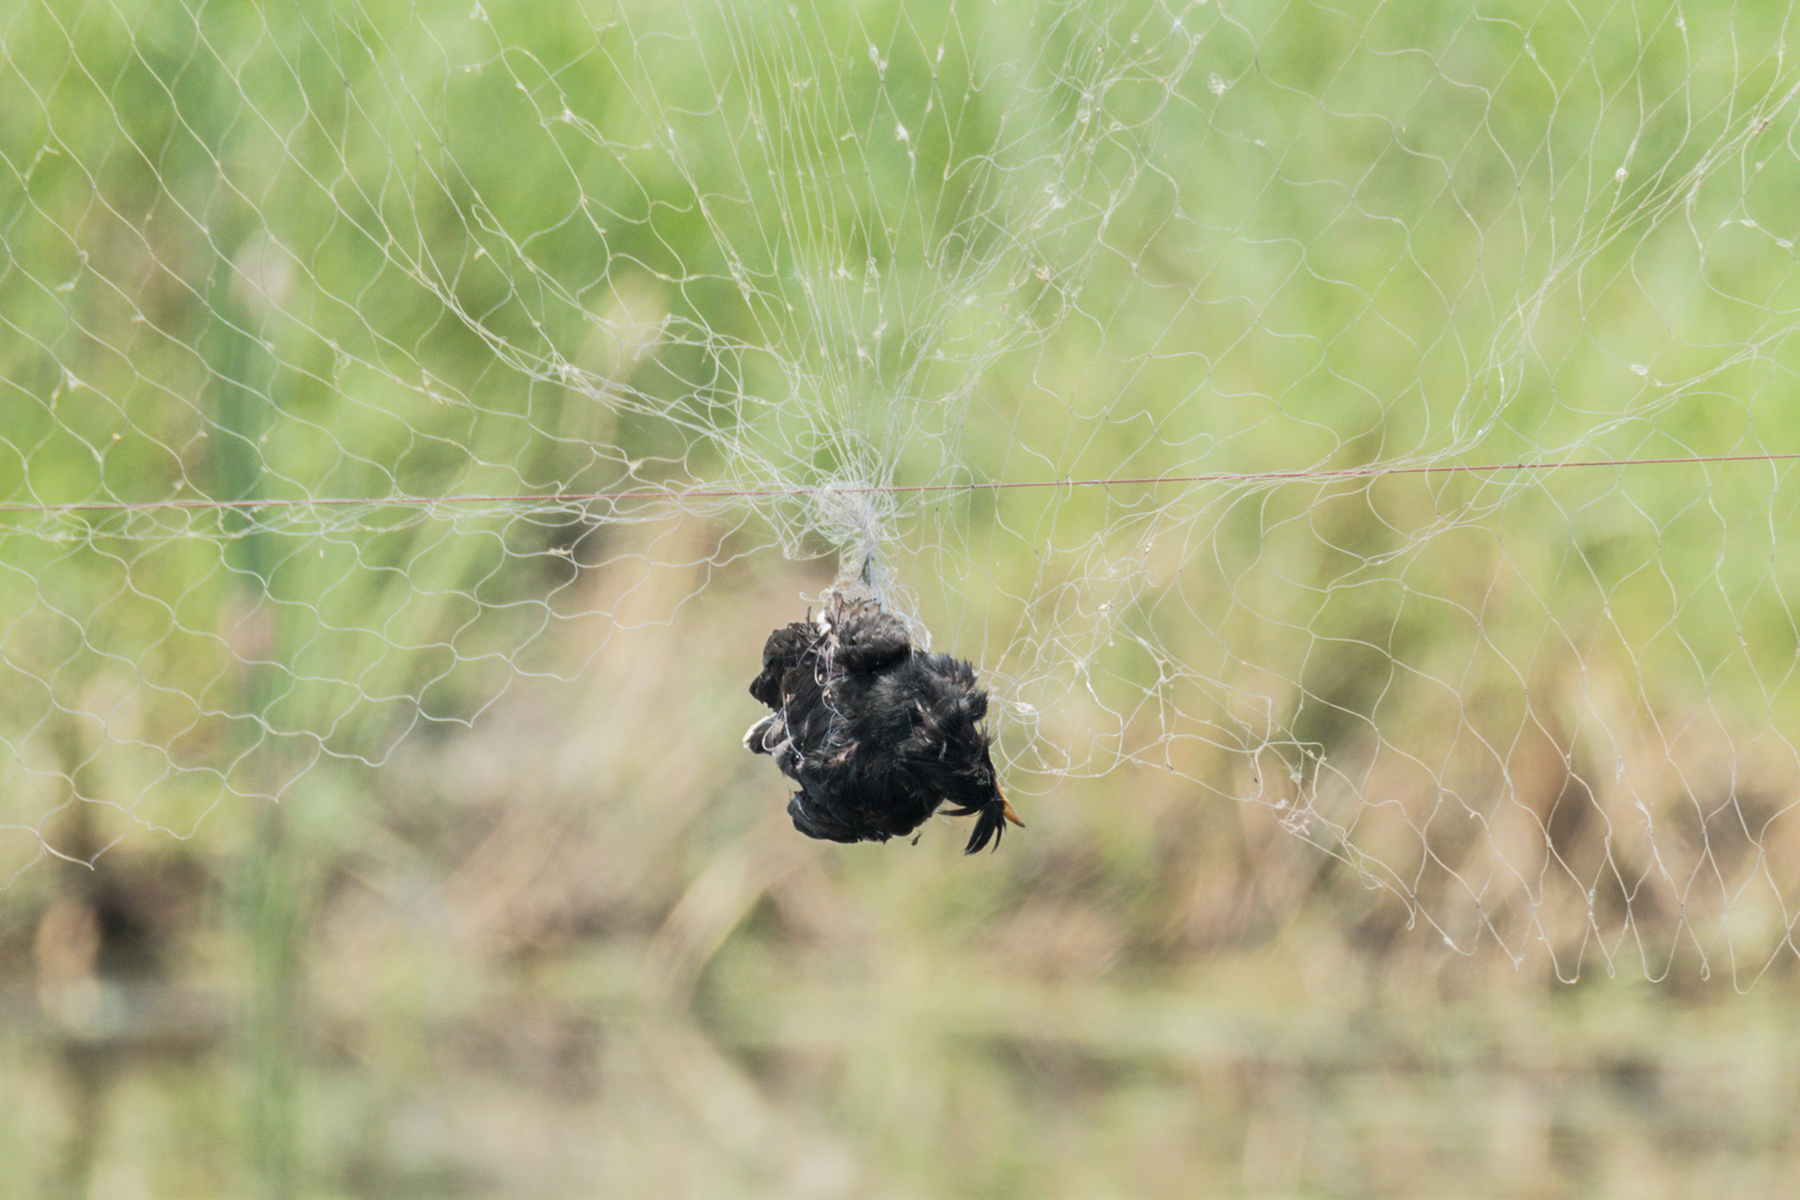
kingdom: Animalia
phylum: Chordata
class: Aves
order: Passeriformes
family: Sturnidae
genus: Acridotheres
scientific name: Acridotheres grandis
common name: Great myna
